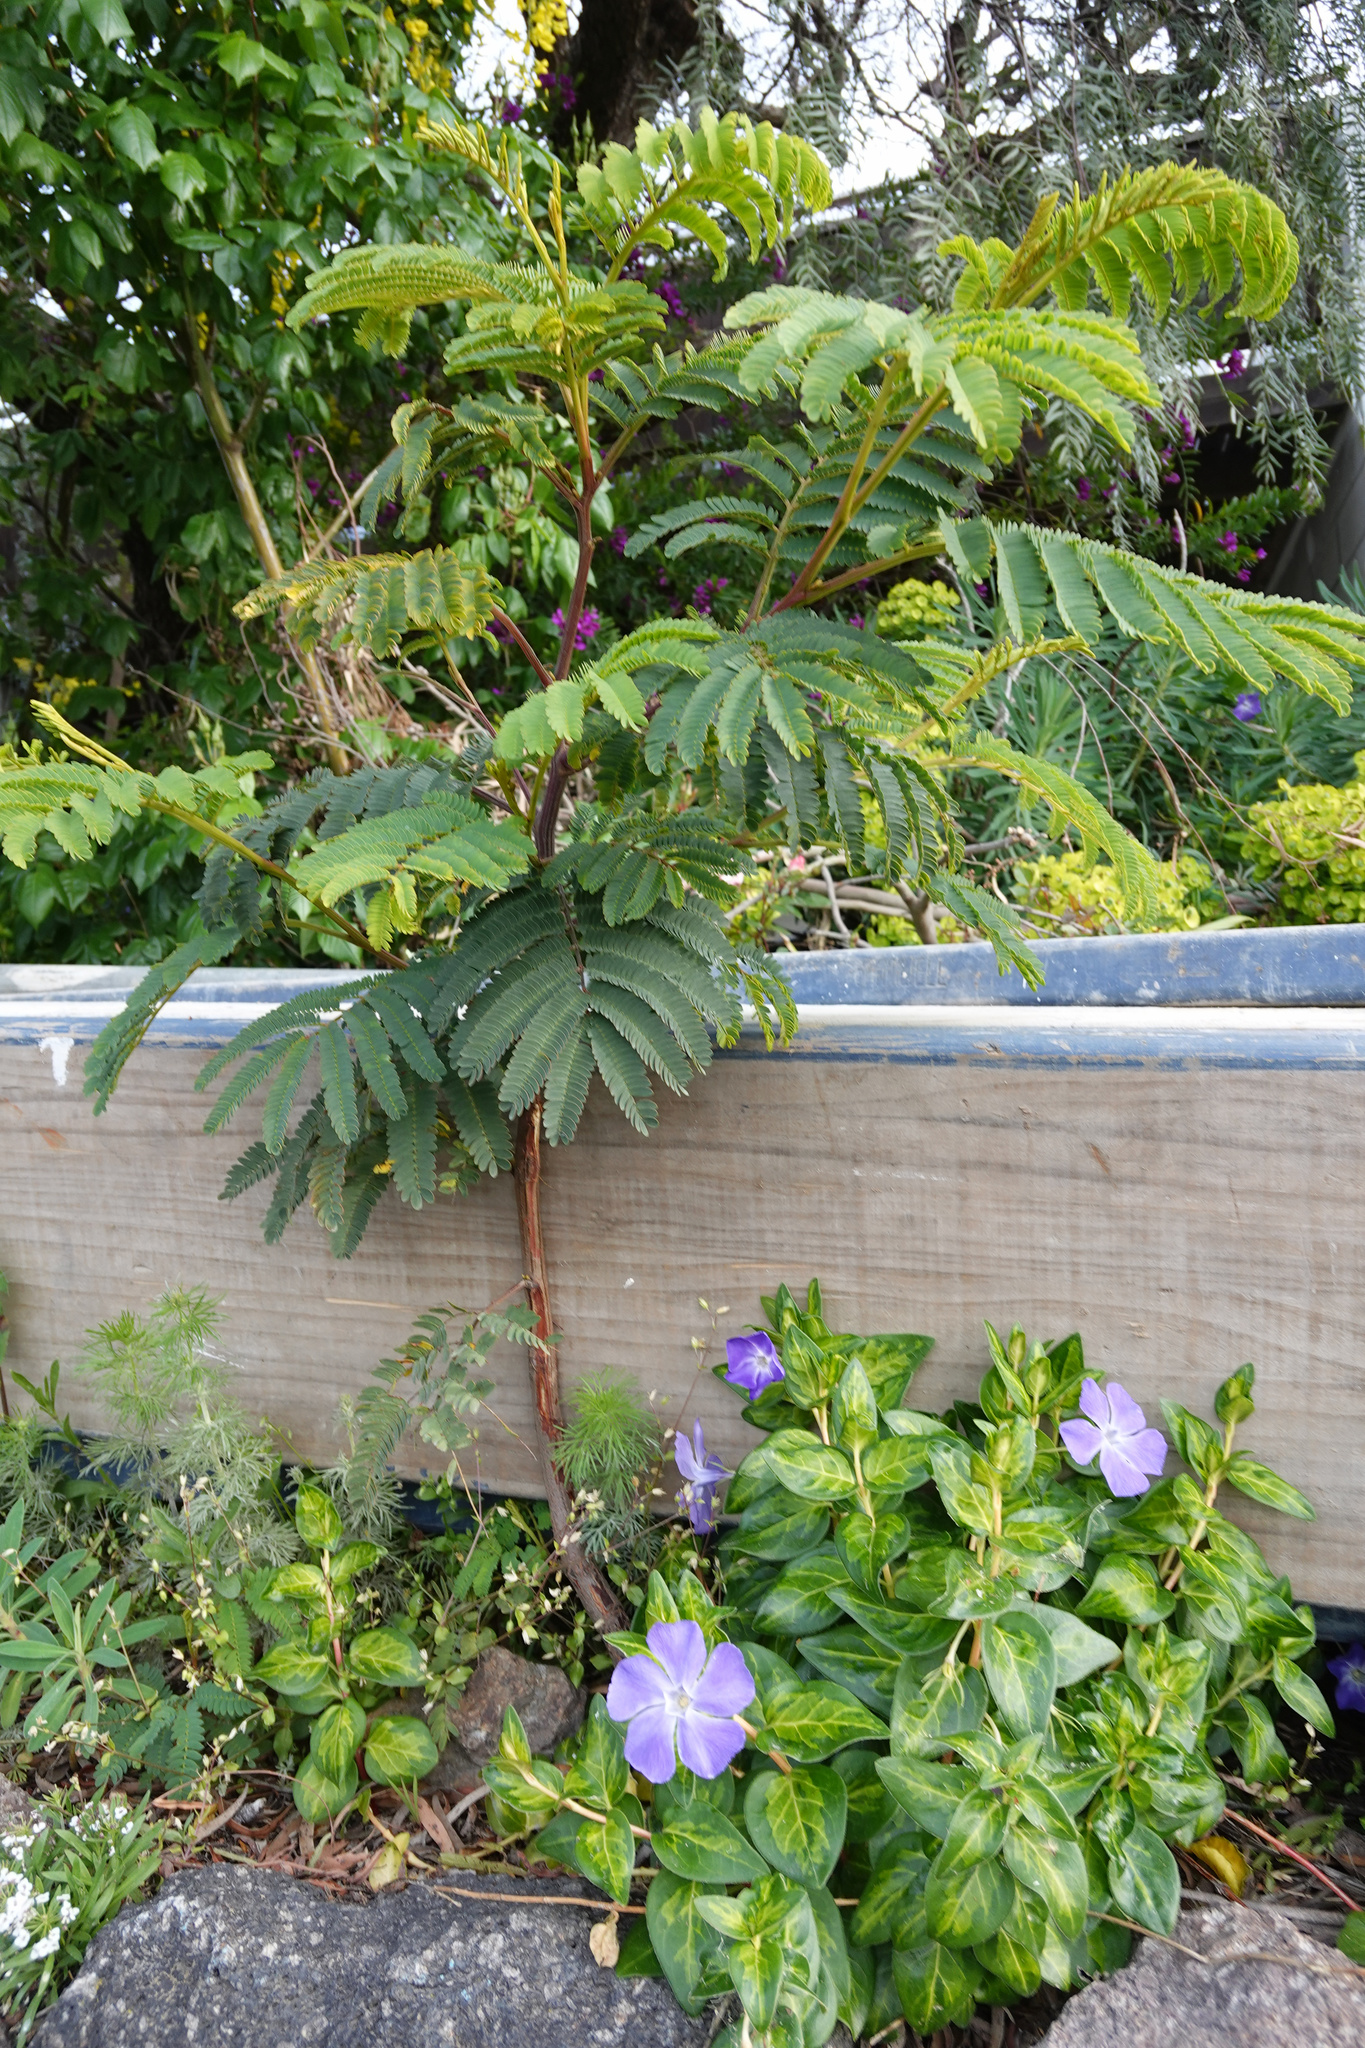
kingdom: Plantae
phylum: Tracheophyta
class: Magnoliopsida
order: Fabales
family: Fabaceae
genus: Paraserianthes
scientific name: Paraserianthes lophantha
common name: Plume albizia
